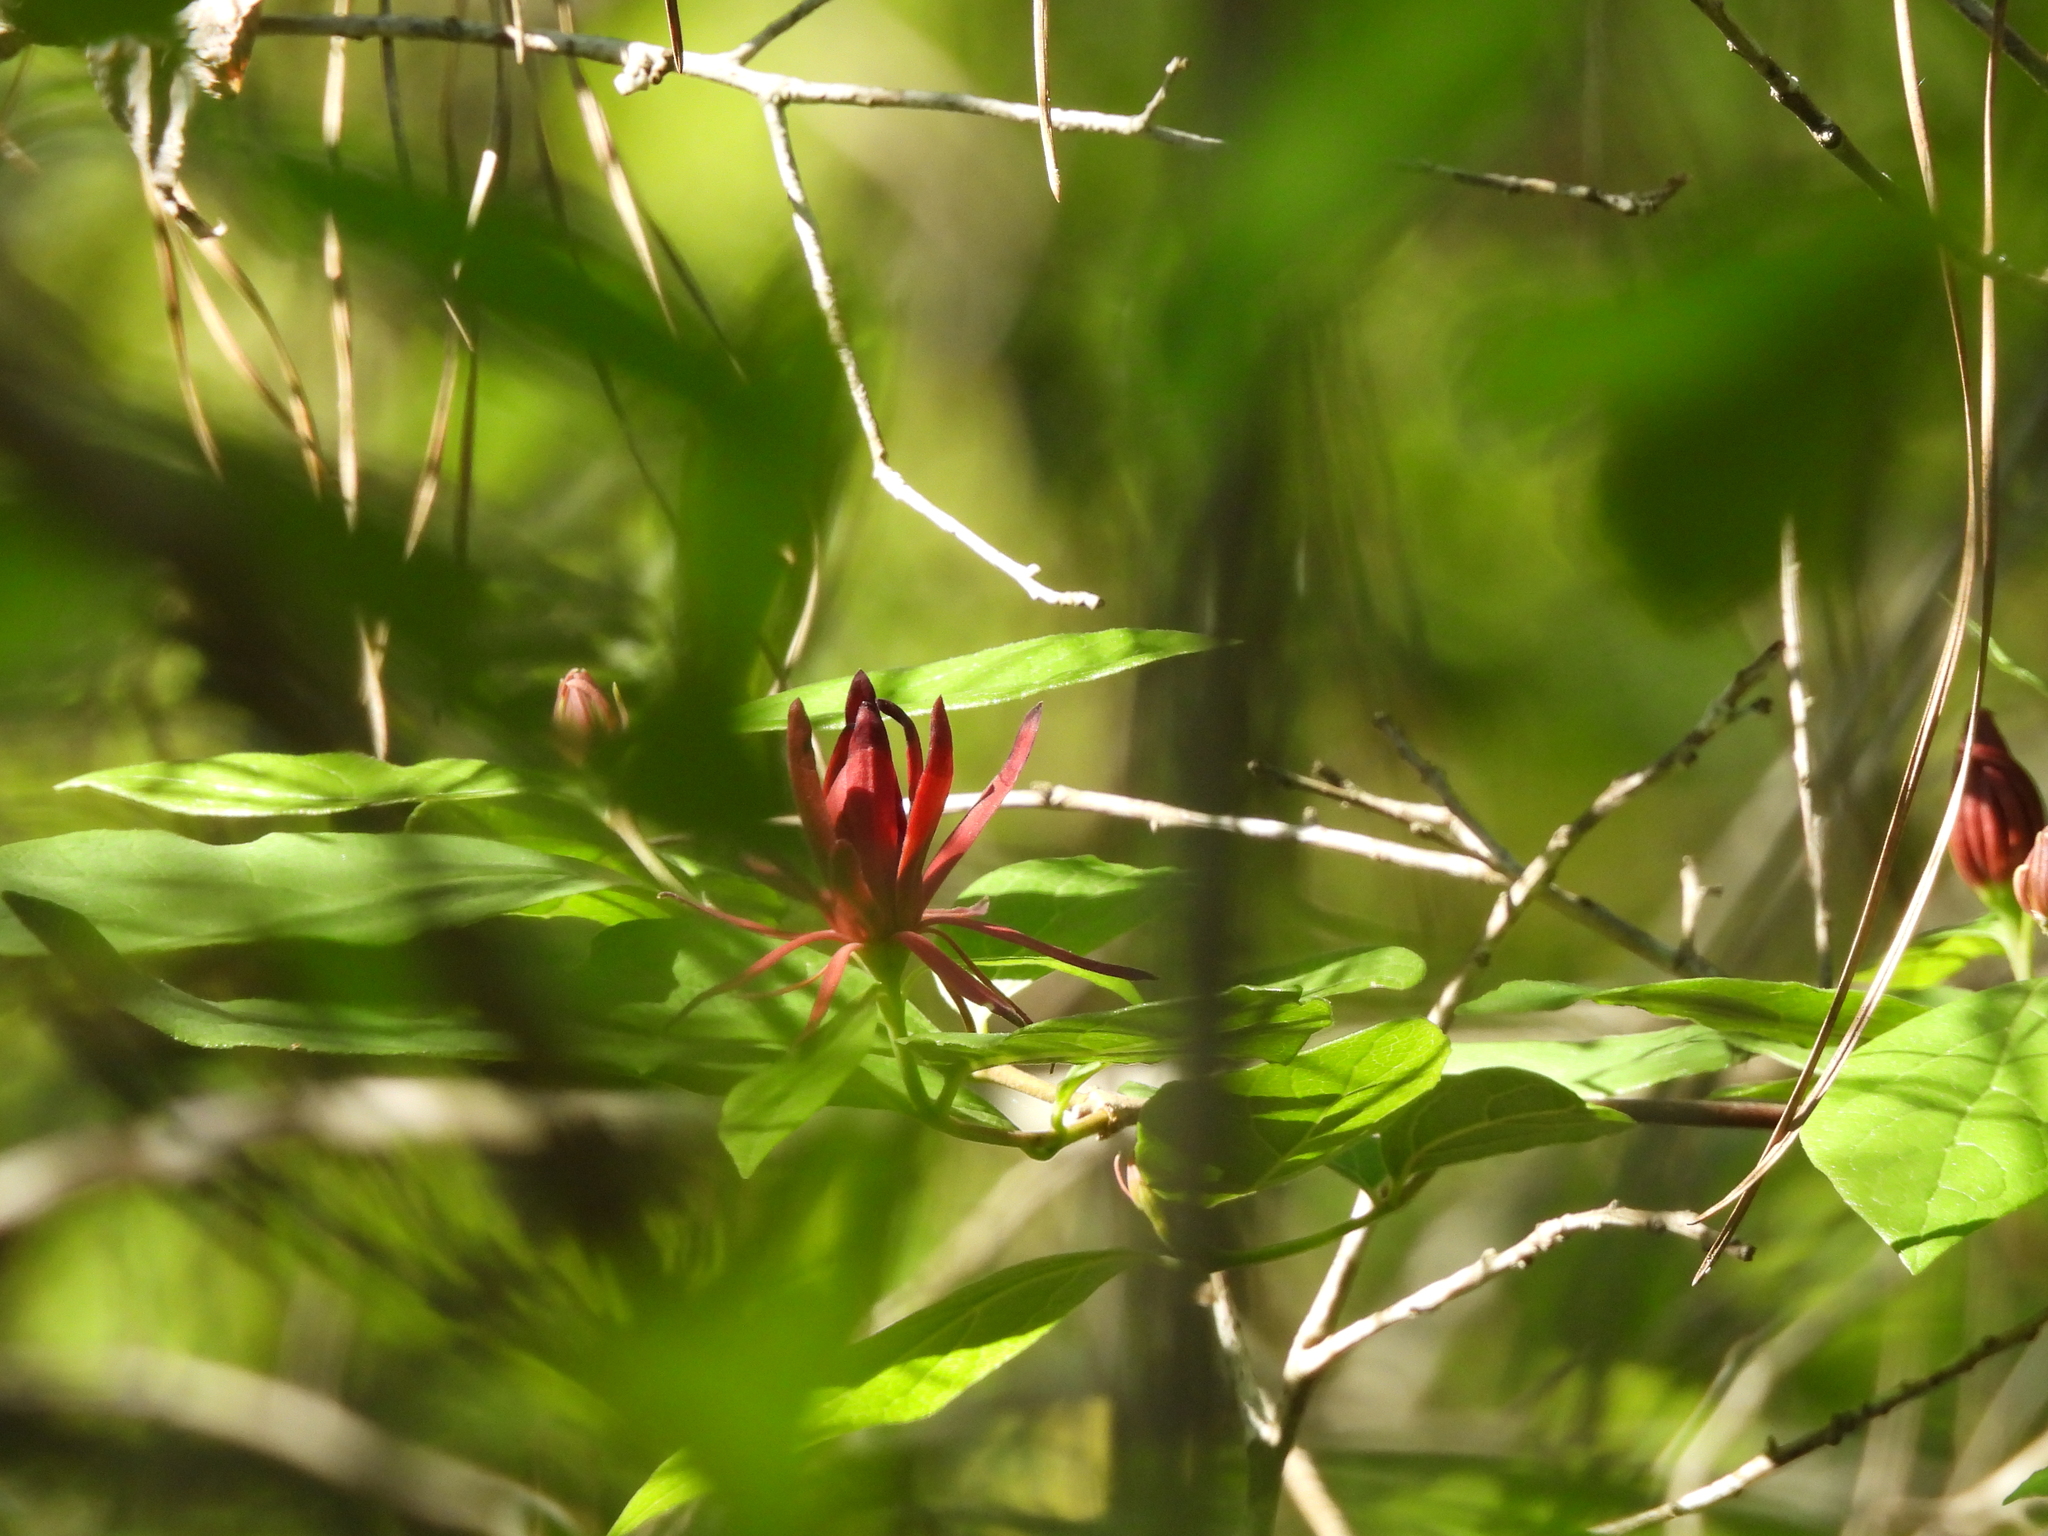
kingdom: Plantae
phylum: Tracheophyta
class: Magnoliopsida
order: Laurales
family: Calycanthaceae
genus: Calycanthus
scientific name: Calycanthus floridus
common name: Carolina-allspice
